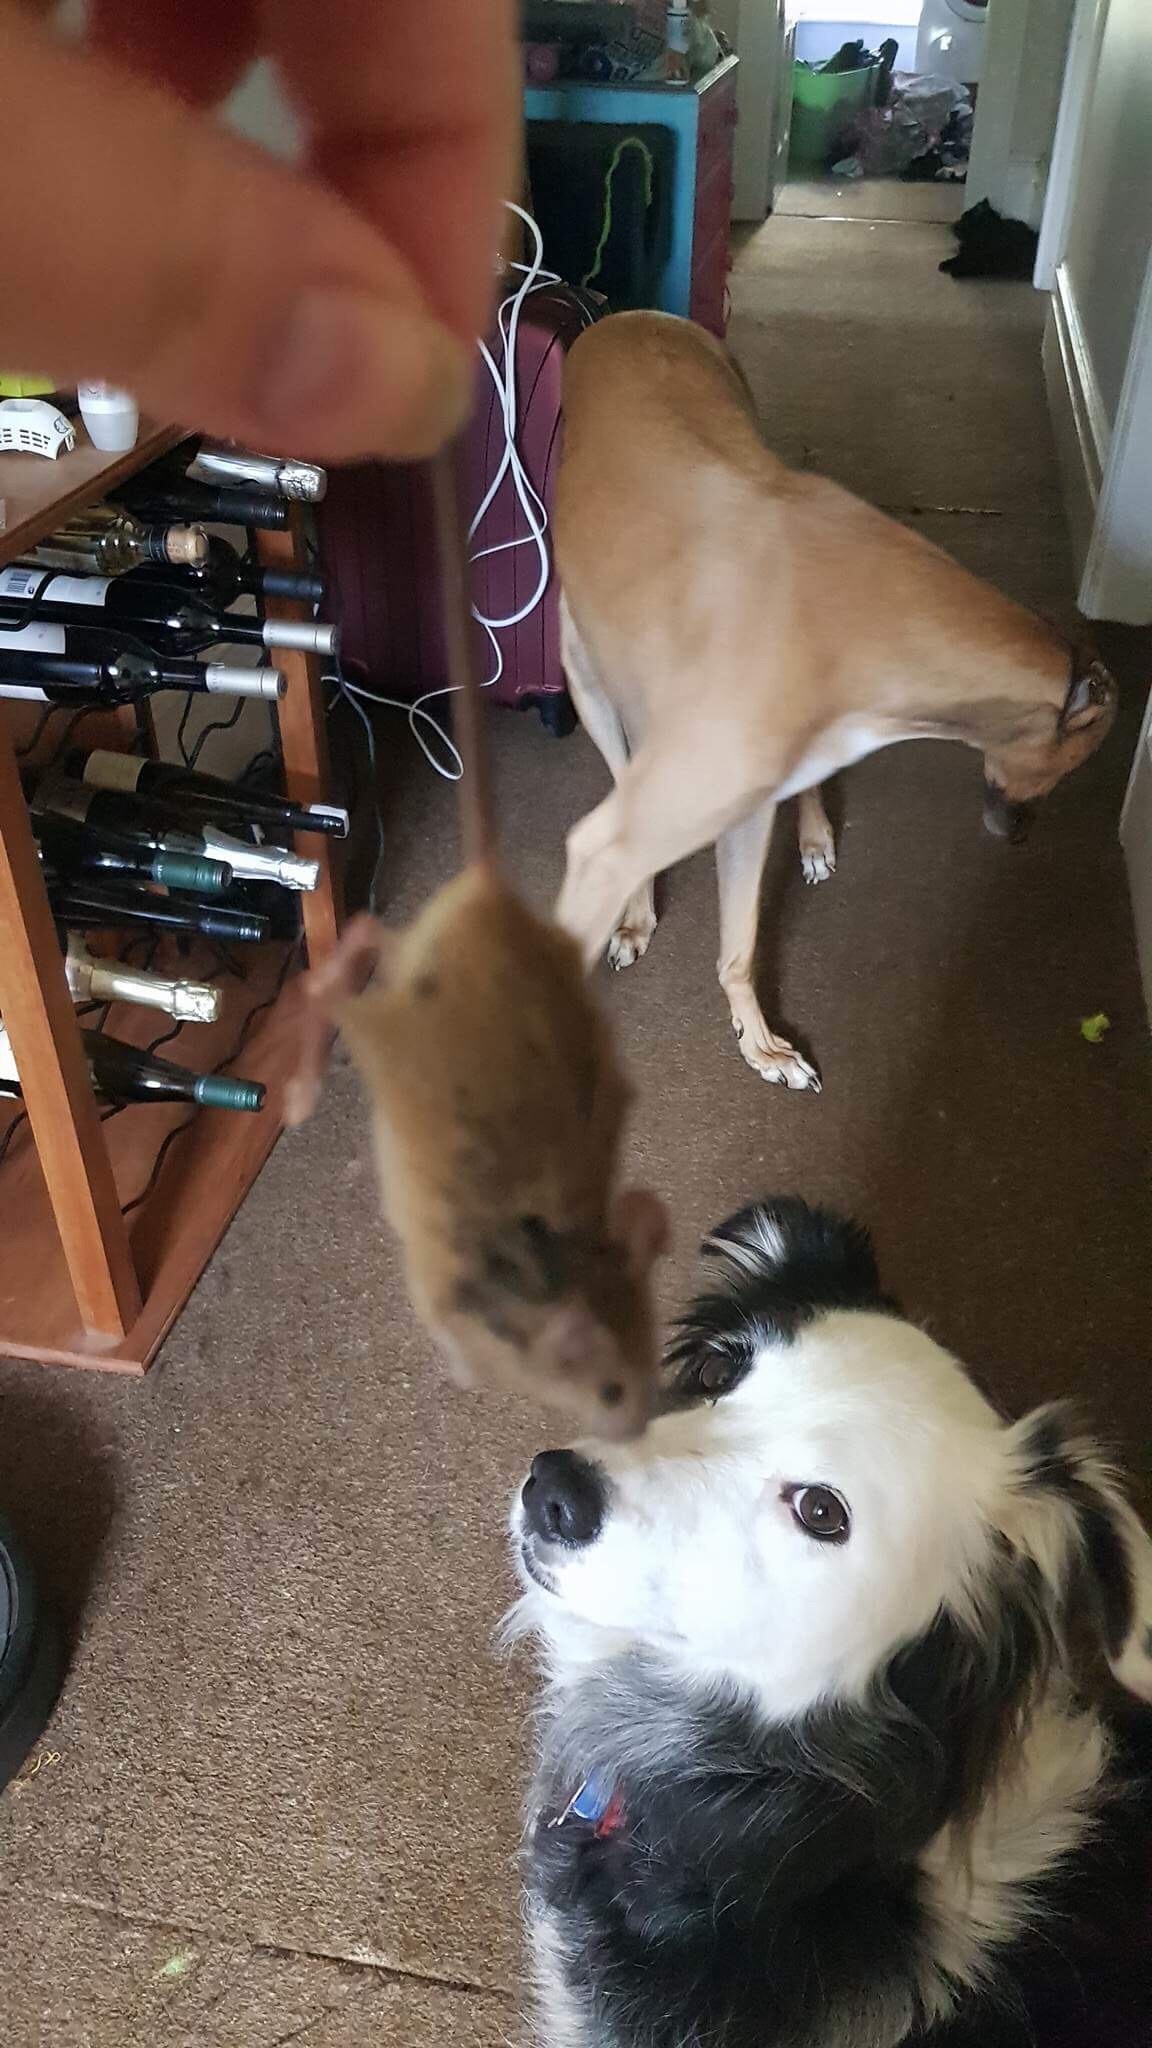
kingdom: Animalia
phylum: Chordata
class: Mammalia
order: Rodentia
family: Muridae
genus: Mus
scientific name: Mus musculus
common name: House mouse
